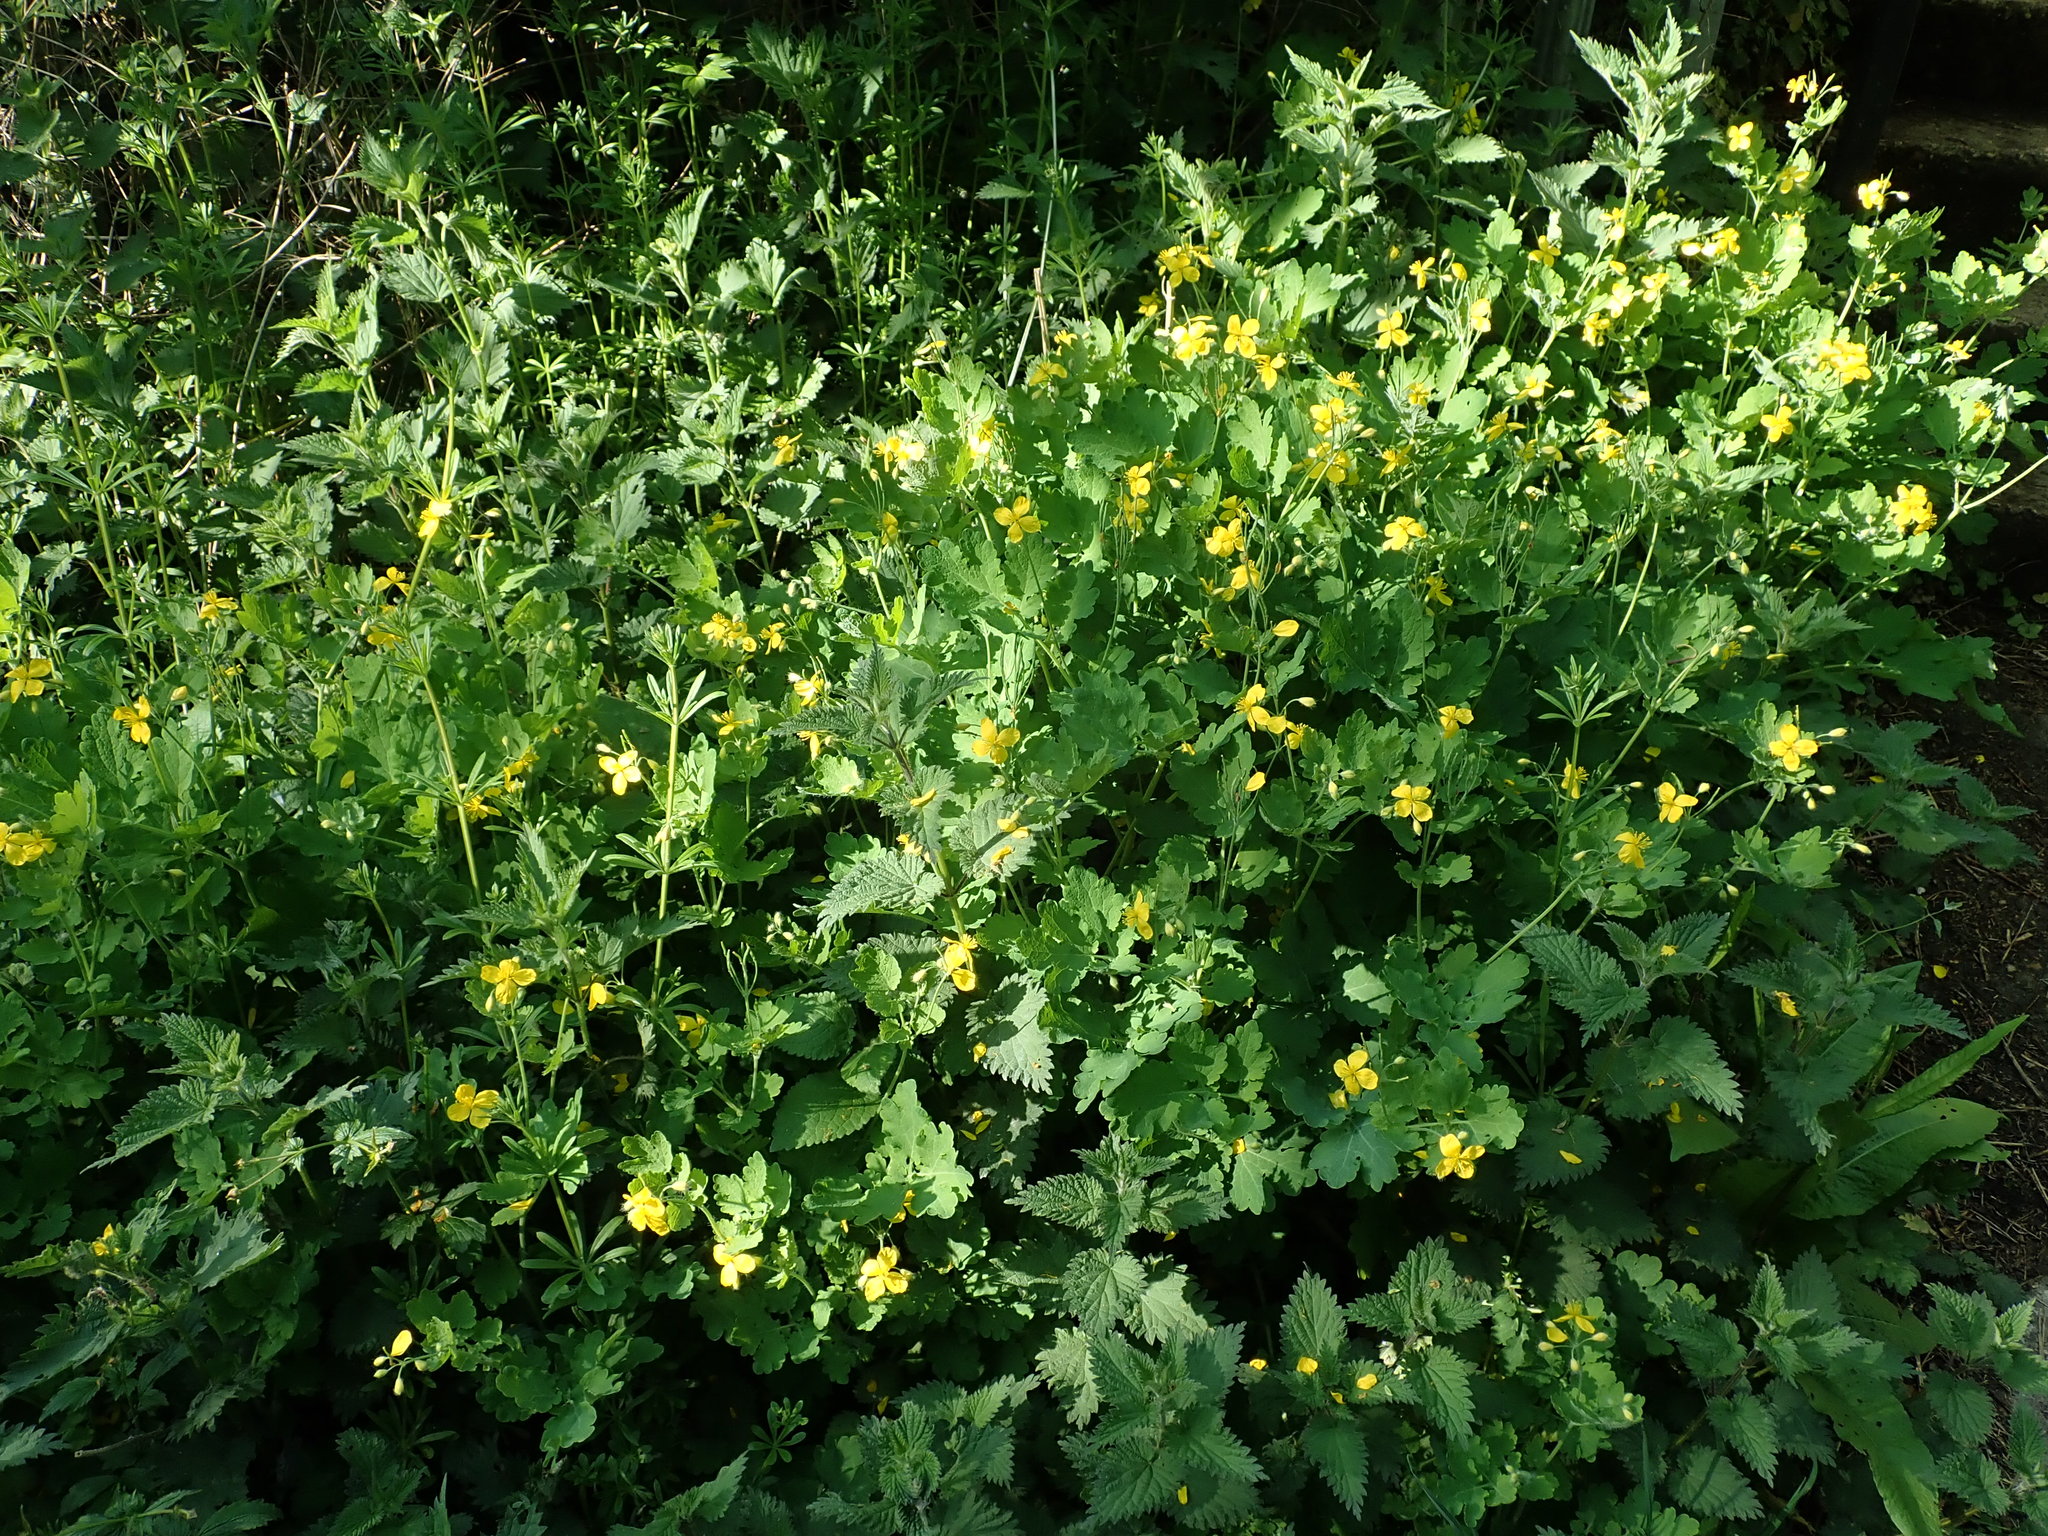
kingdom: Plantae
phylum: Tracheophyta
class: Magnoliopsida
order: Ranunculales
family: Papaveraceae
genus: Chelidonium
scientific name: Chelidonium majus
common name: Greater celandine
